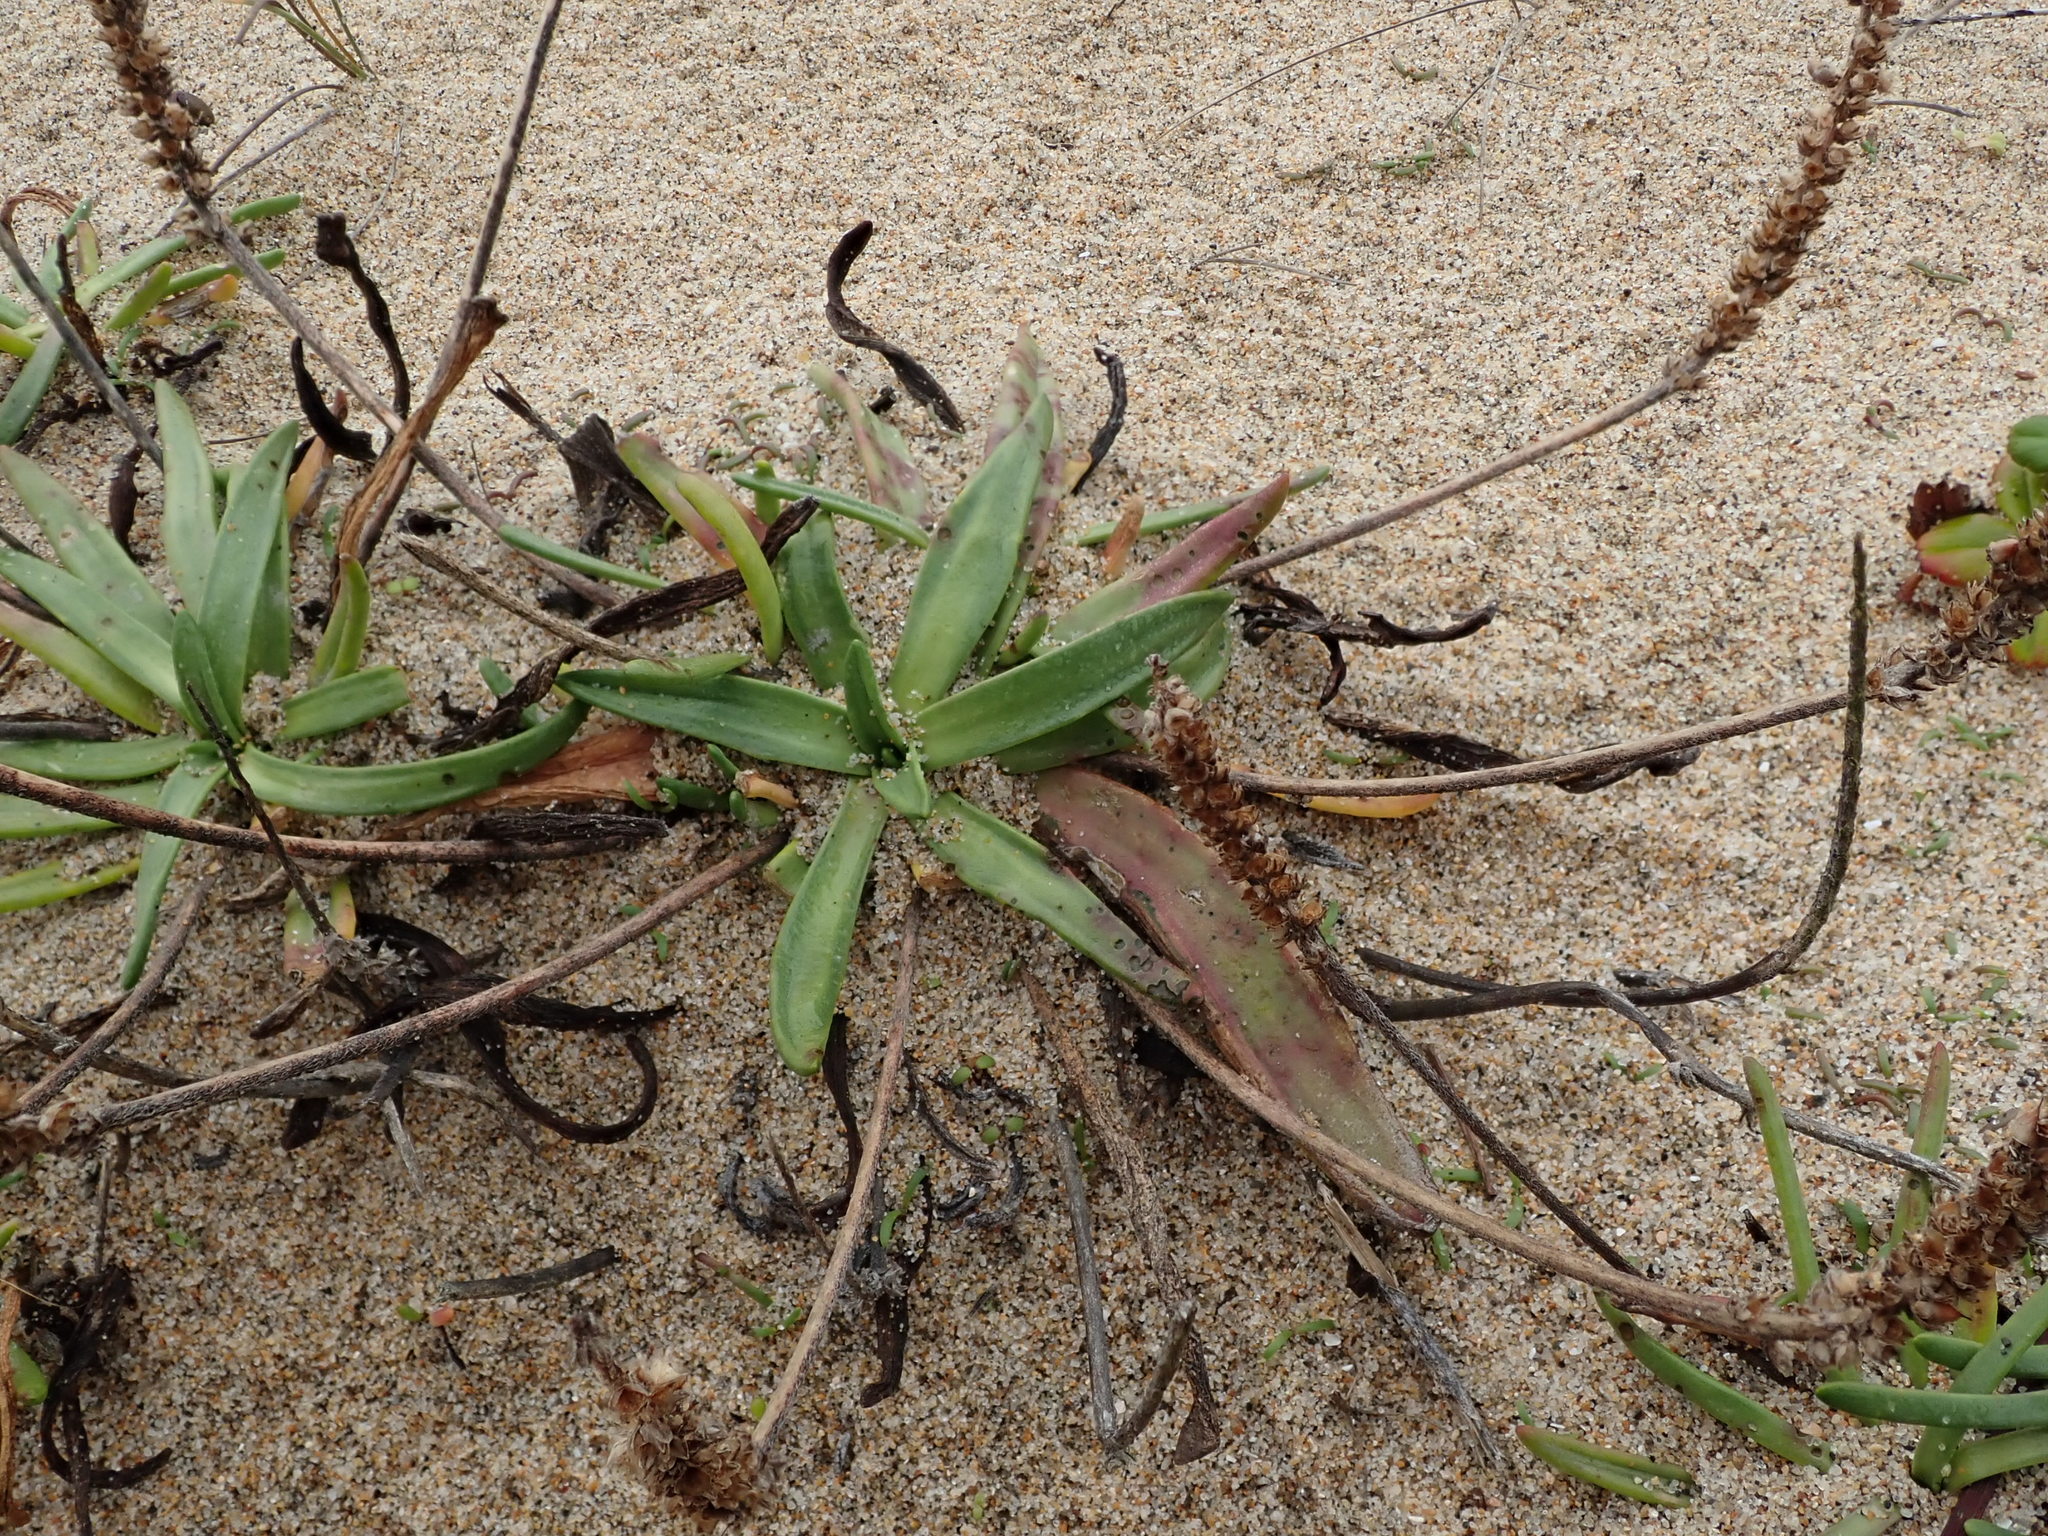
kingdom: Plantae
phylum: Tracheophyta
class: Magnoliopsida
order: Lamiales
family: Plantaginaceae
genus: Plantago
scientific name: Plantago maritima
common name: Sea plantain
